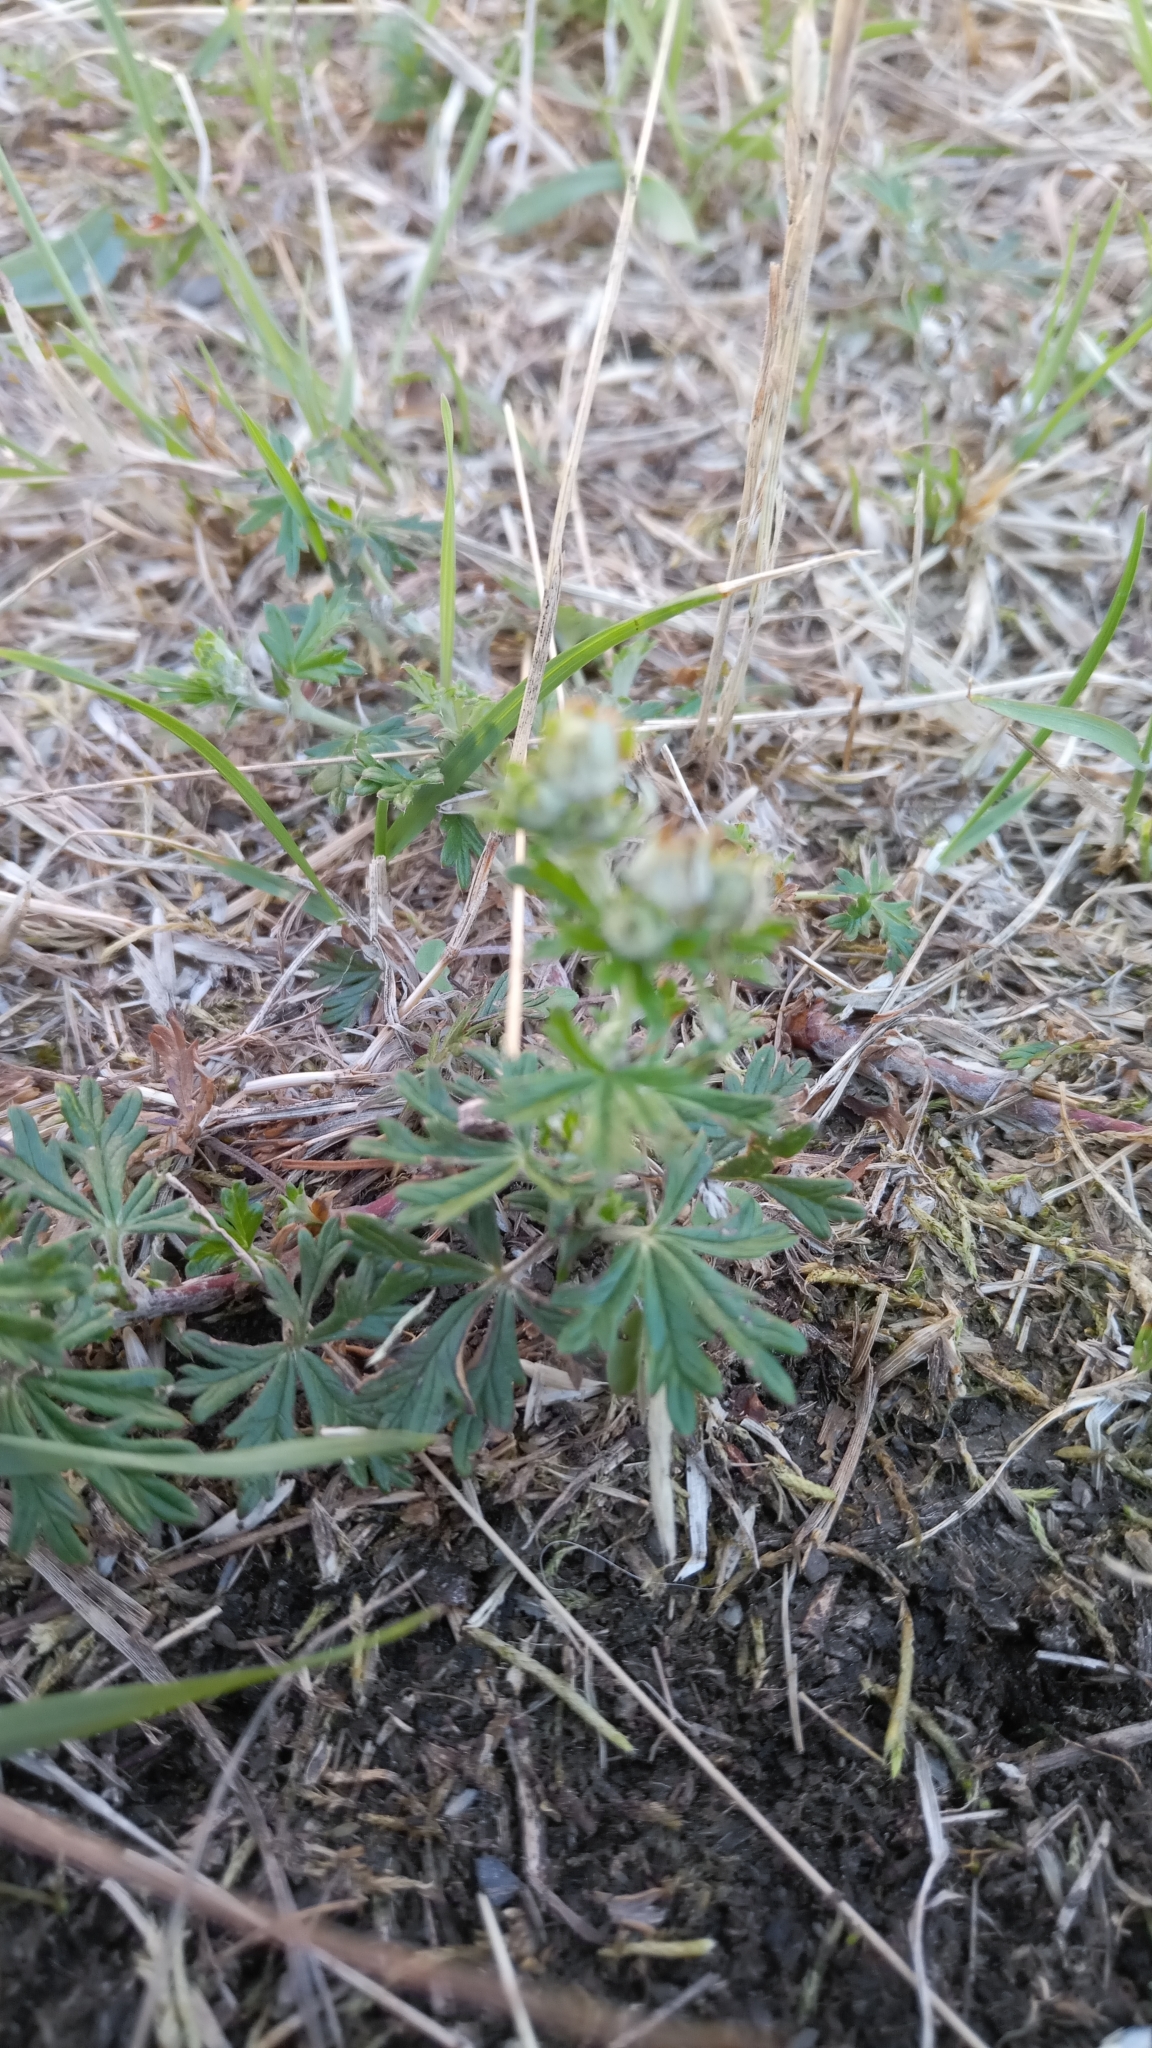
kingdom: Plantae
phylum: Tracheophyta
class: Magnoliopsida
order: Rosales
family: Rosaceae
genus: Potentilla
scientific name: Potentilla argentea
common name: Hoary cinquefoil
